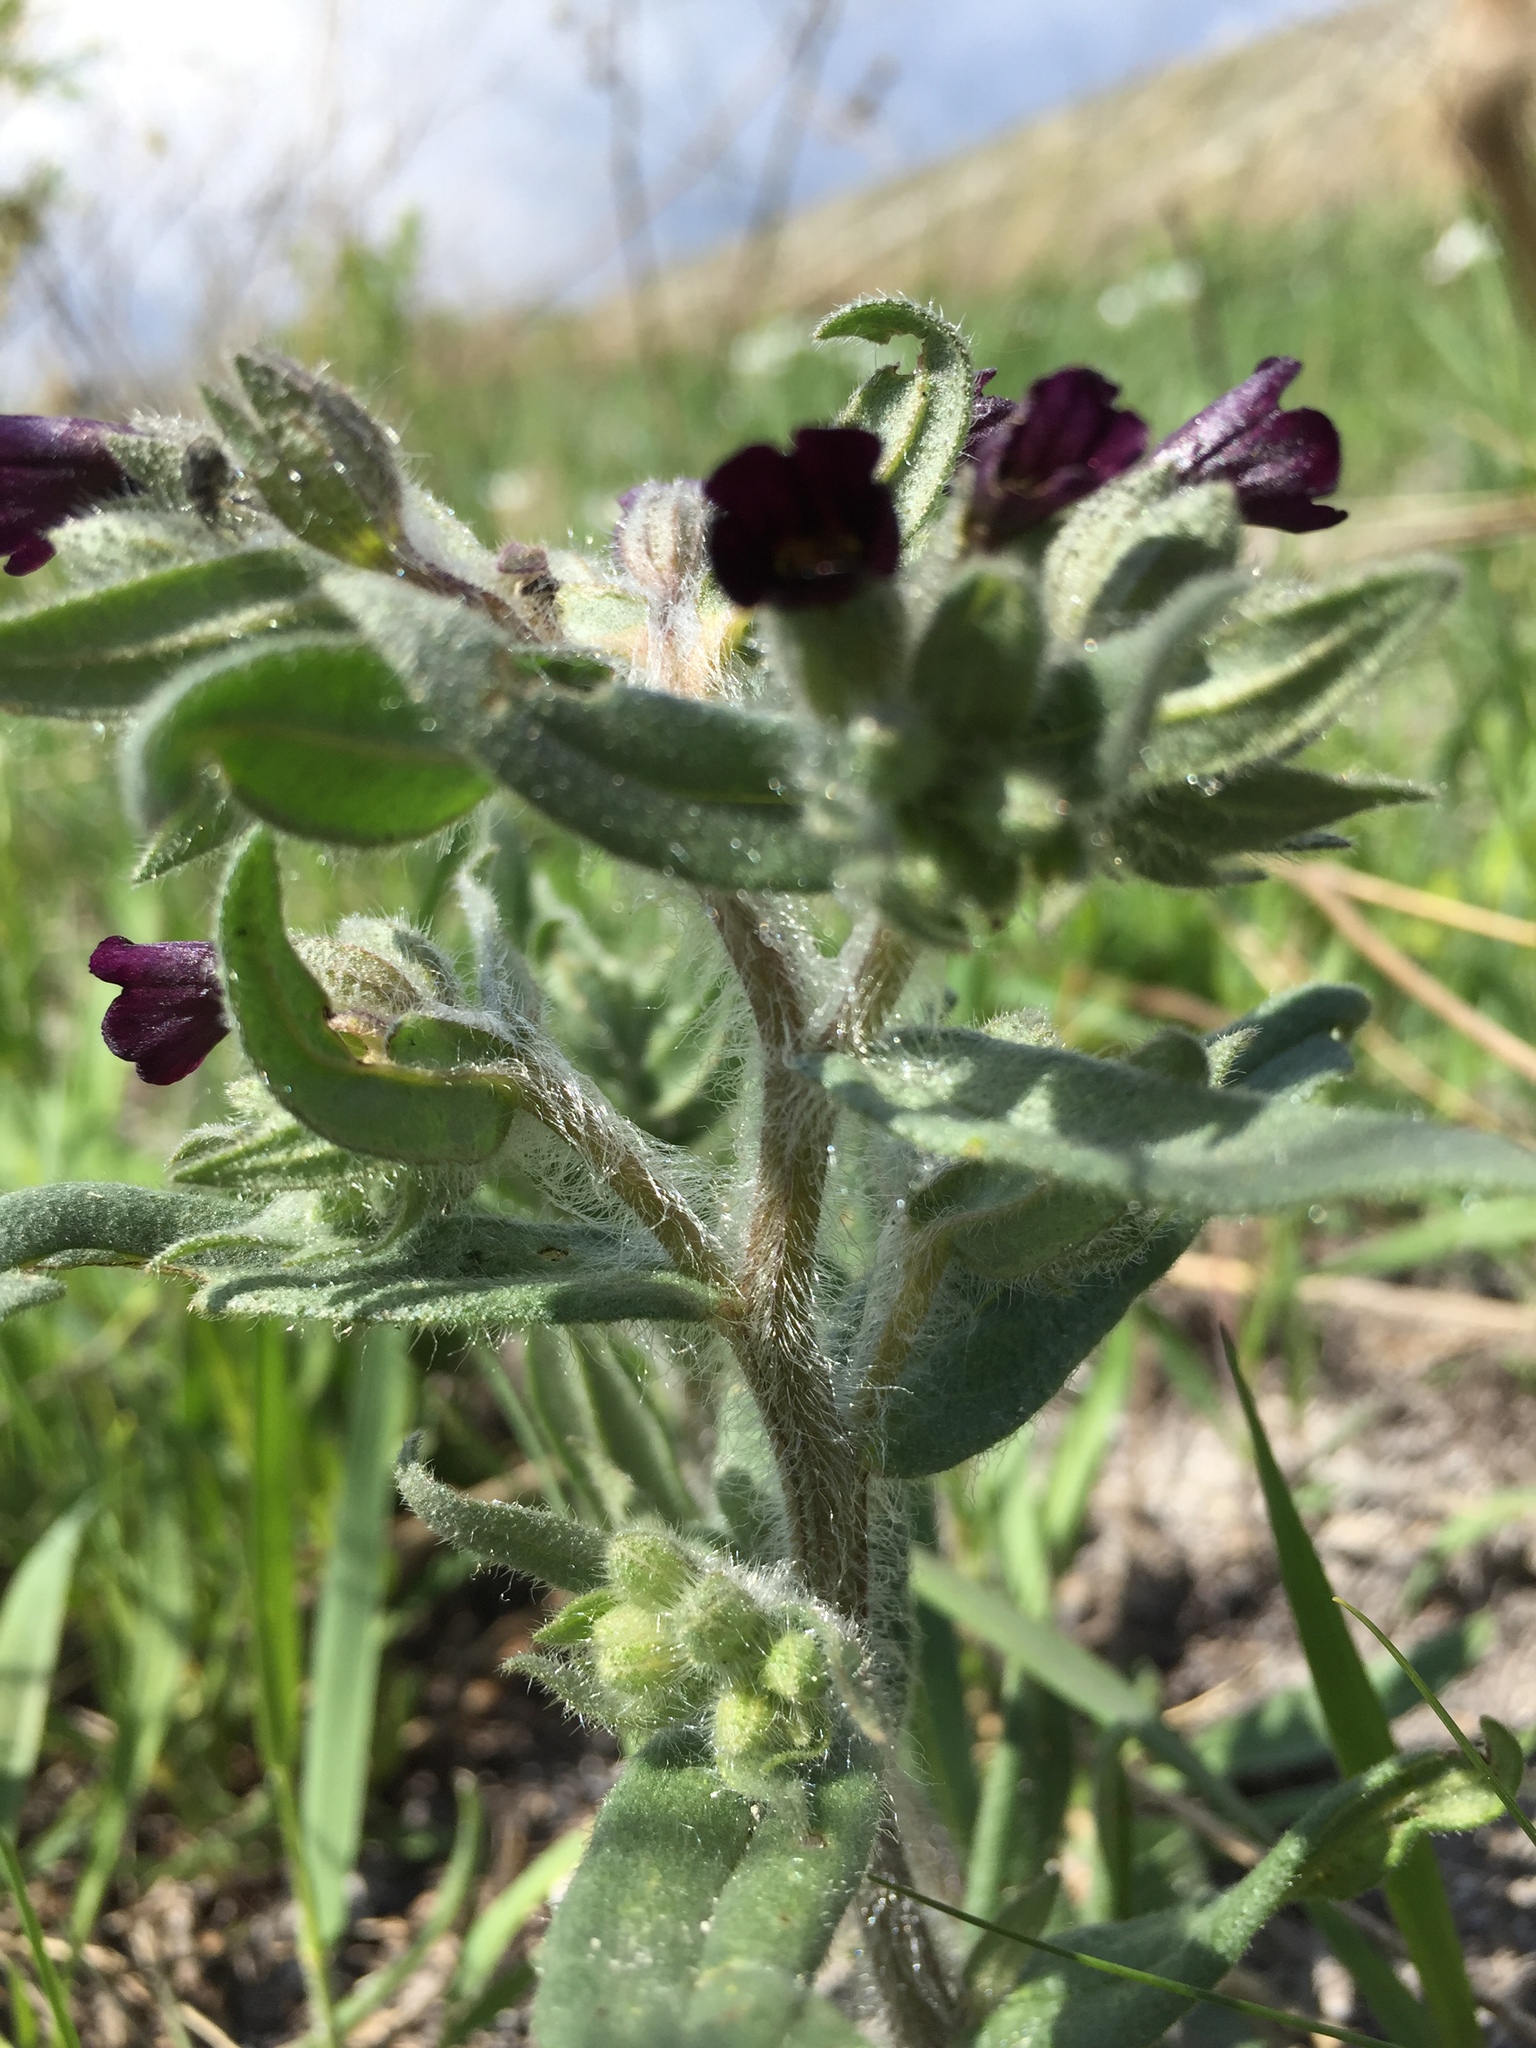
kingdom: Plantae
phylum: Tracheophyta
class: Magnoliopsida
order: Boraginales
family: Boraginaceae
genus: Nonea
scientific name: Nonea pulla
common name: Brown nonea
